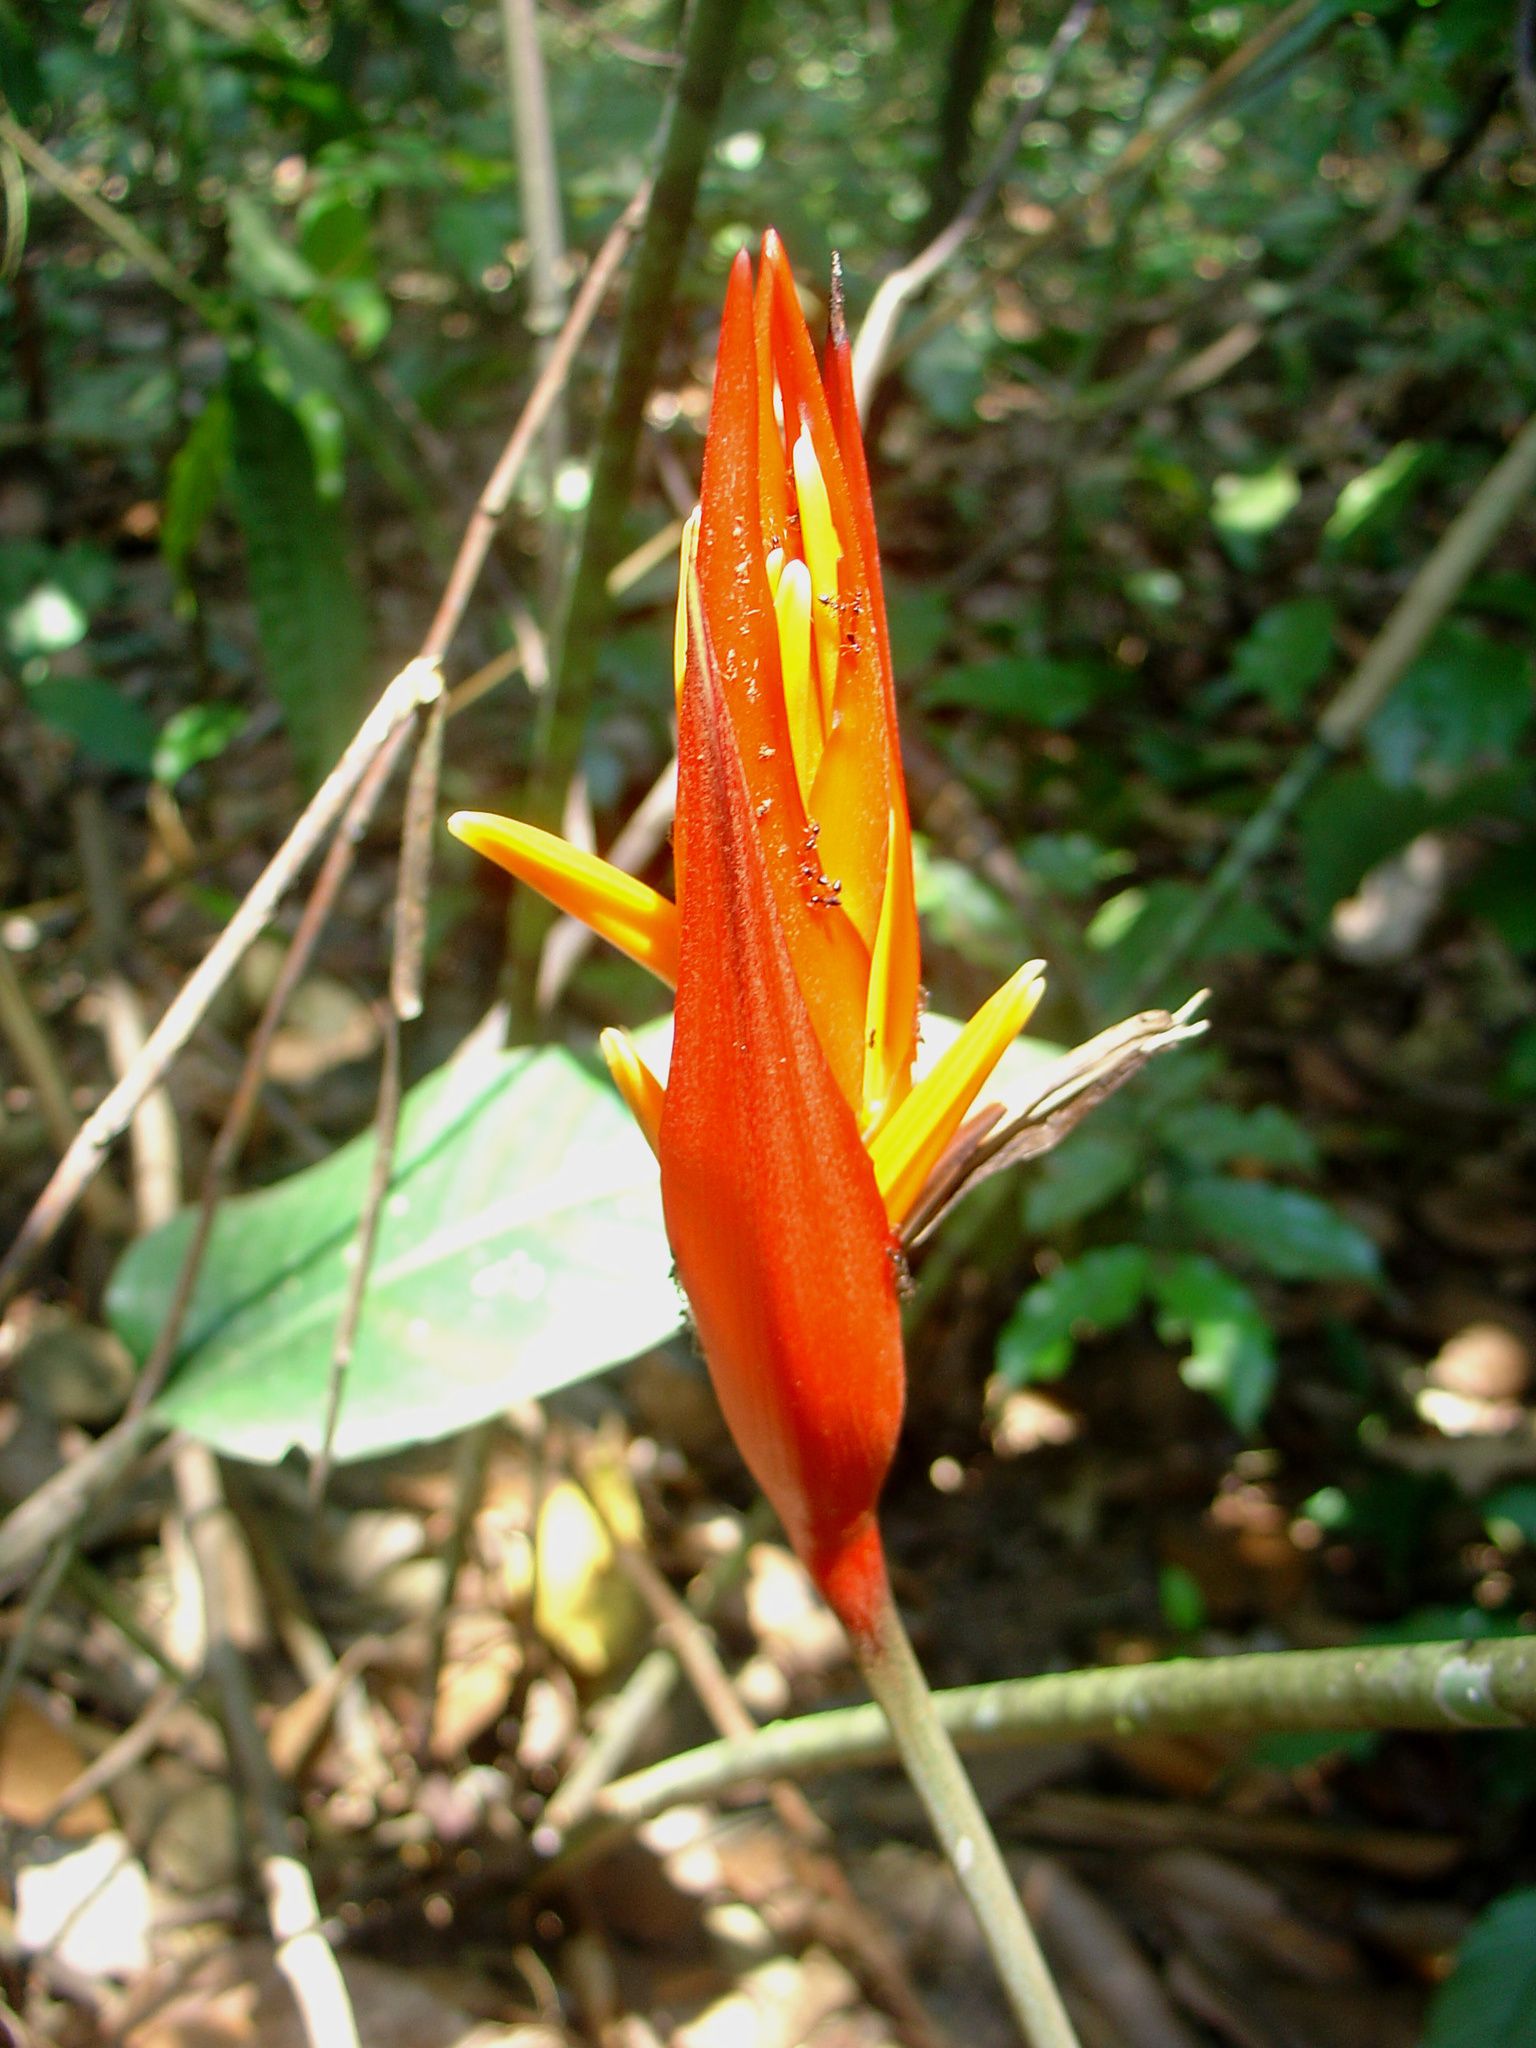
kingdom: Plantae
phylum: Tracheophyta
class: Liliopsida
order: Zingiberales
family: Heliconiaceae
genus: Heliconia
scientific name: Heliconia densiflora
